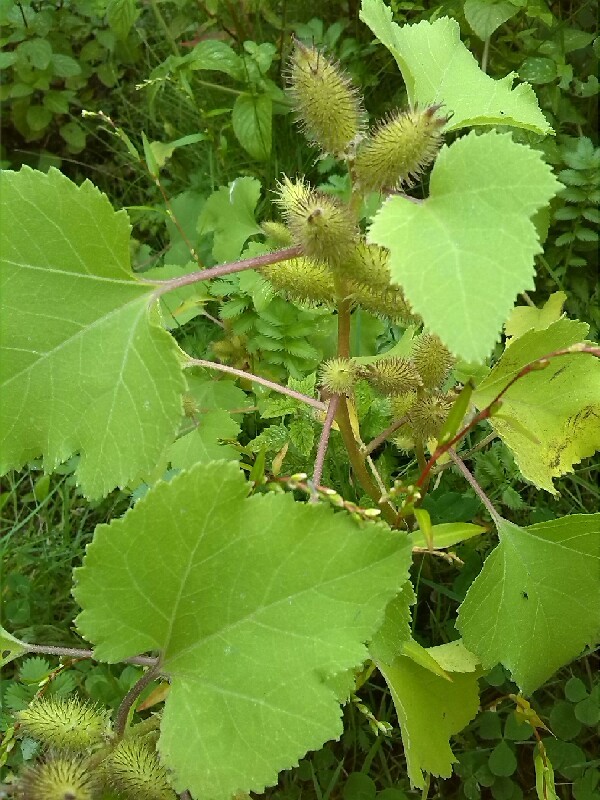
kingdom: Plantae
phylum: Tracheophyta
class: Magnoliopsida
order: Asterales
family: Asteraceae
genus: Xanthium
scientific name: Xanthium strumarium
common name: Rough cocklebur
